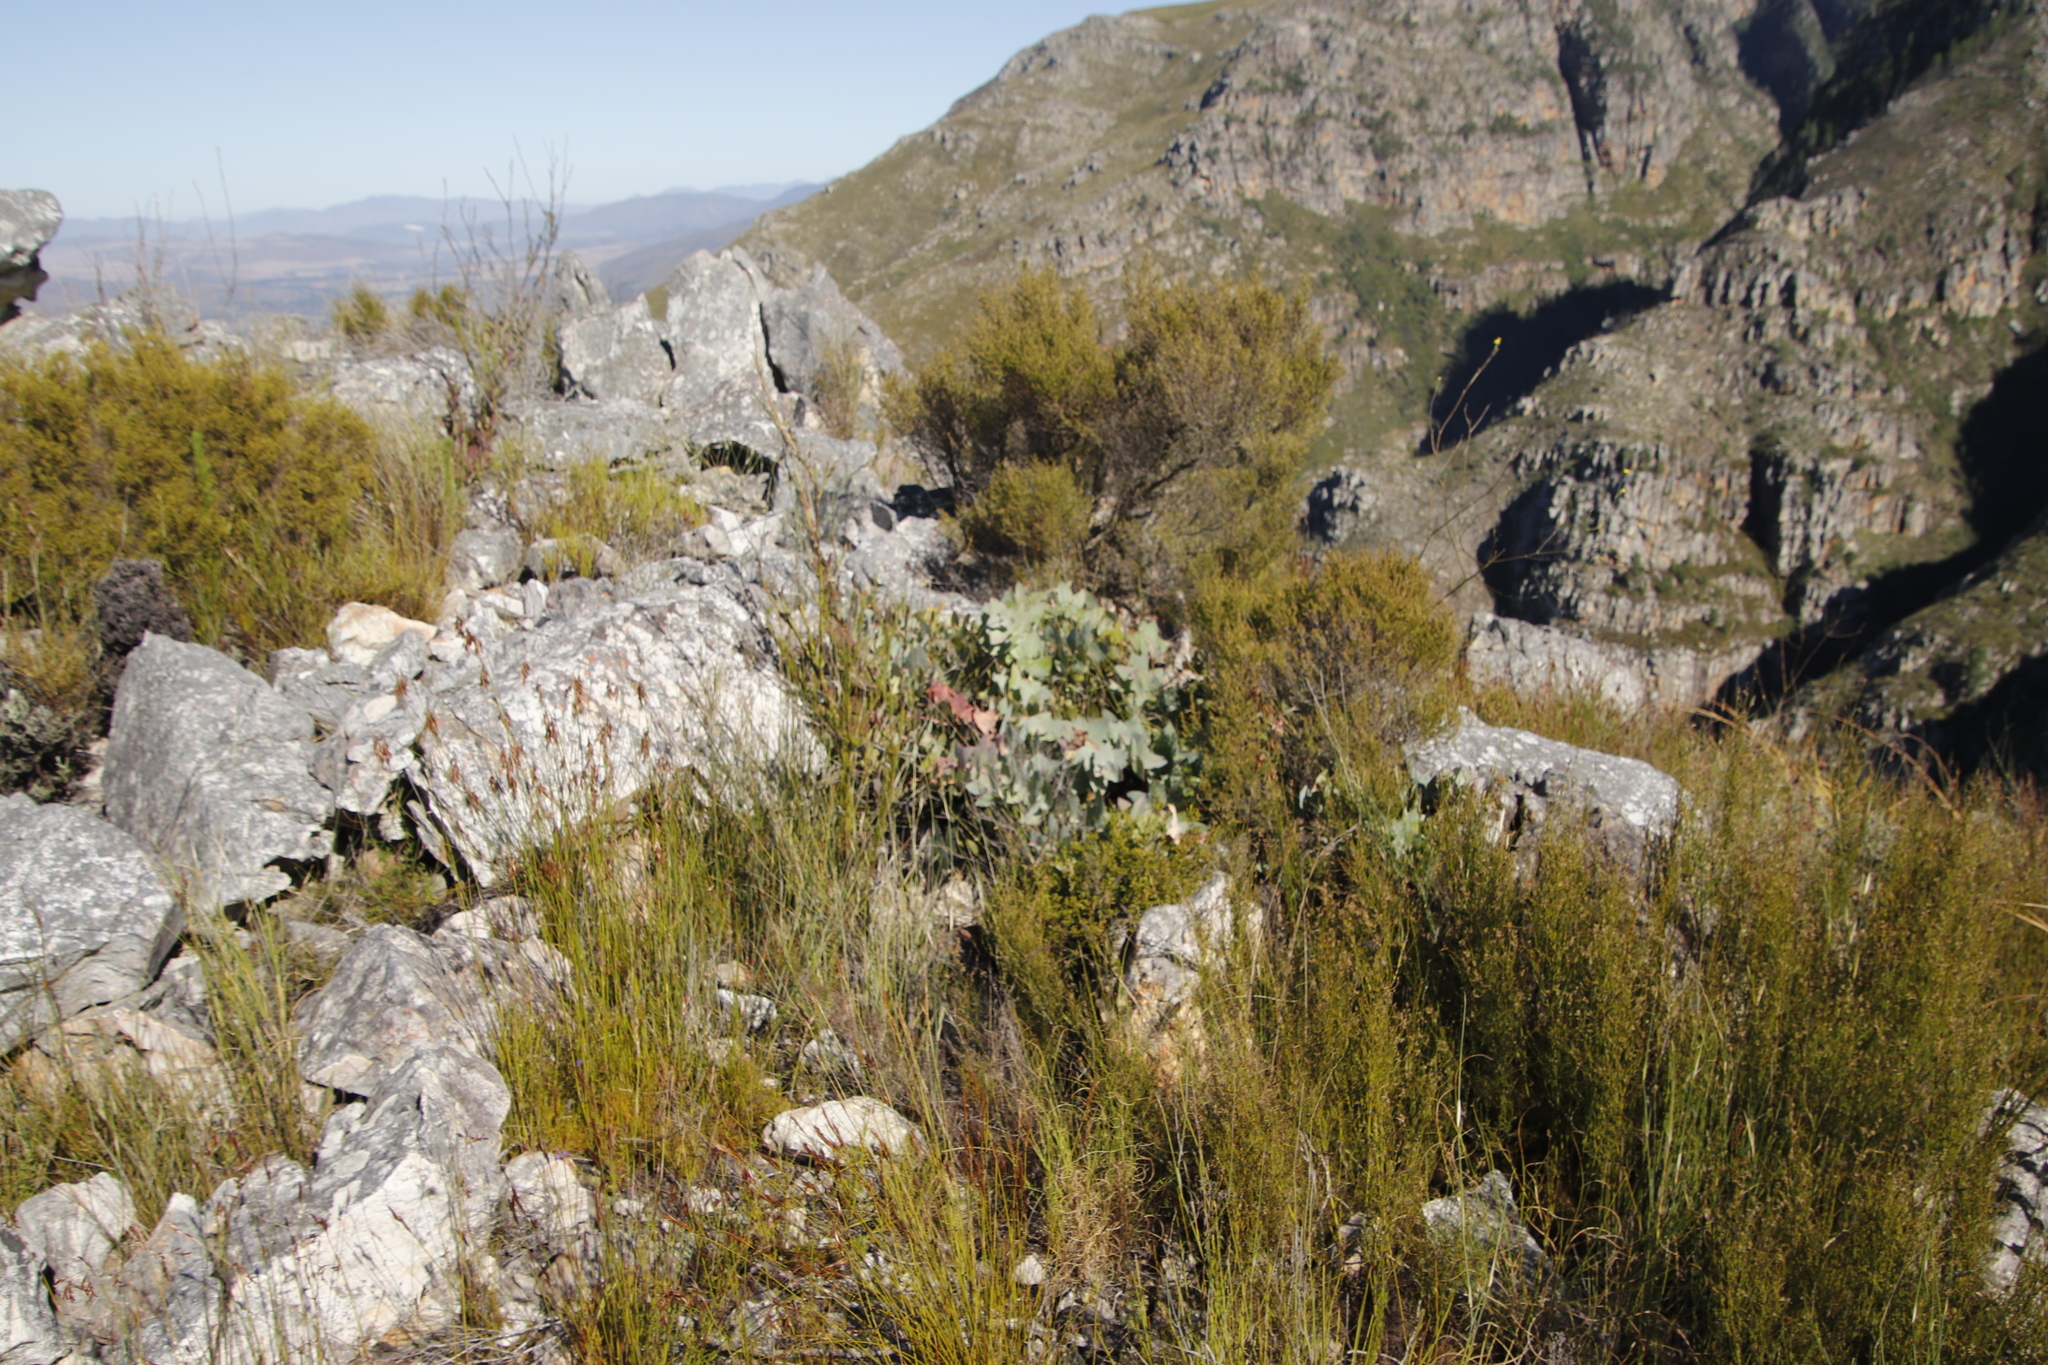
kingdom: Plantae
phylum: Tracheophyta
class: Magnoliopsida
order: Proteales
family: Proteaceae
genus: Protea
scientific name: Protea amplexicaulis
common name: Clasping-leaf sugarbush
